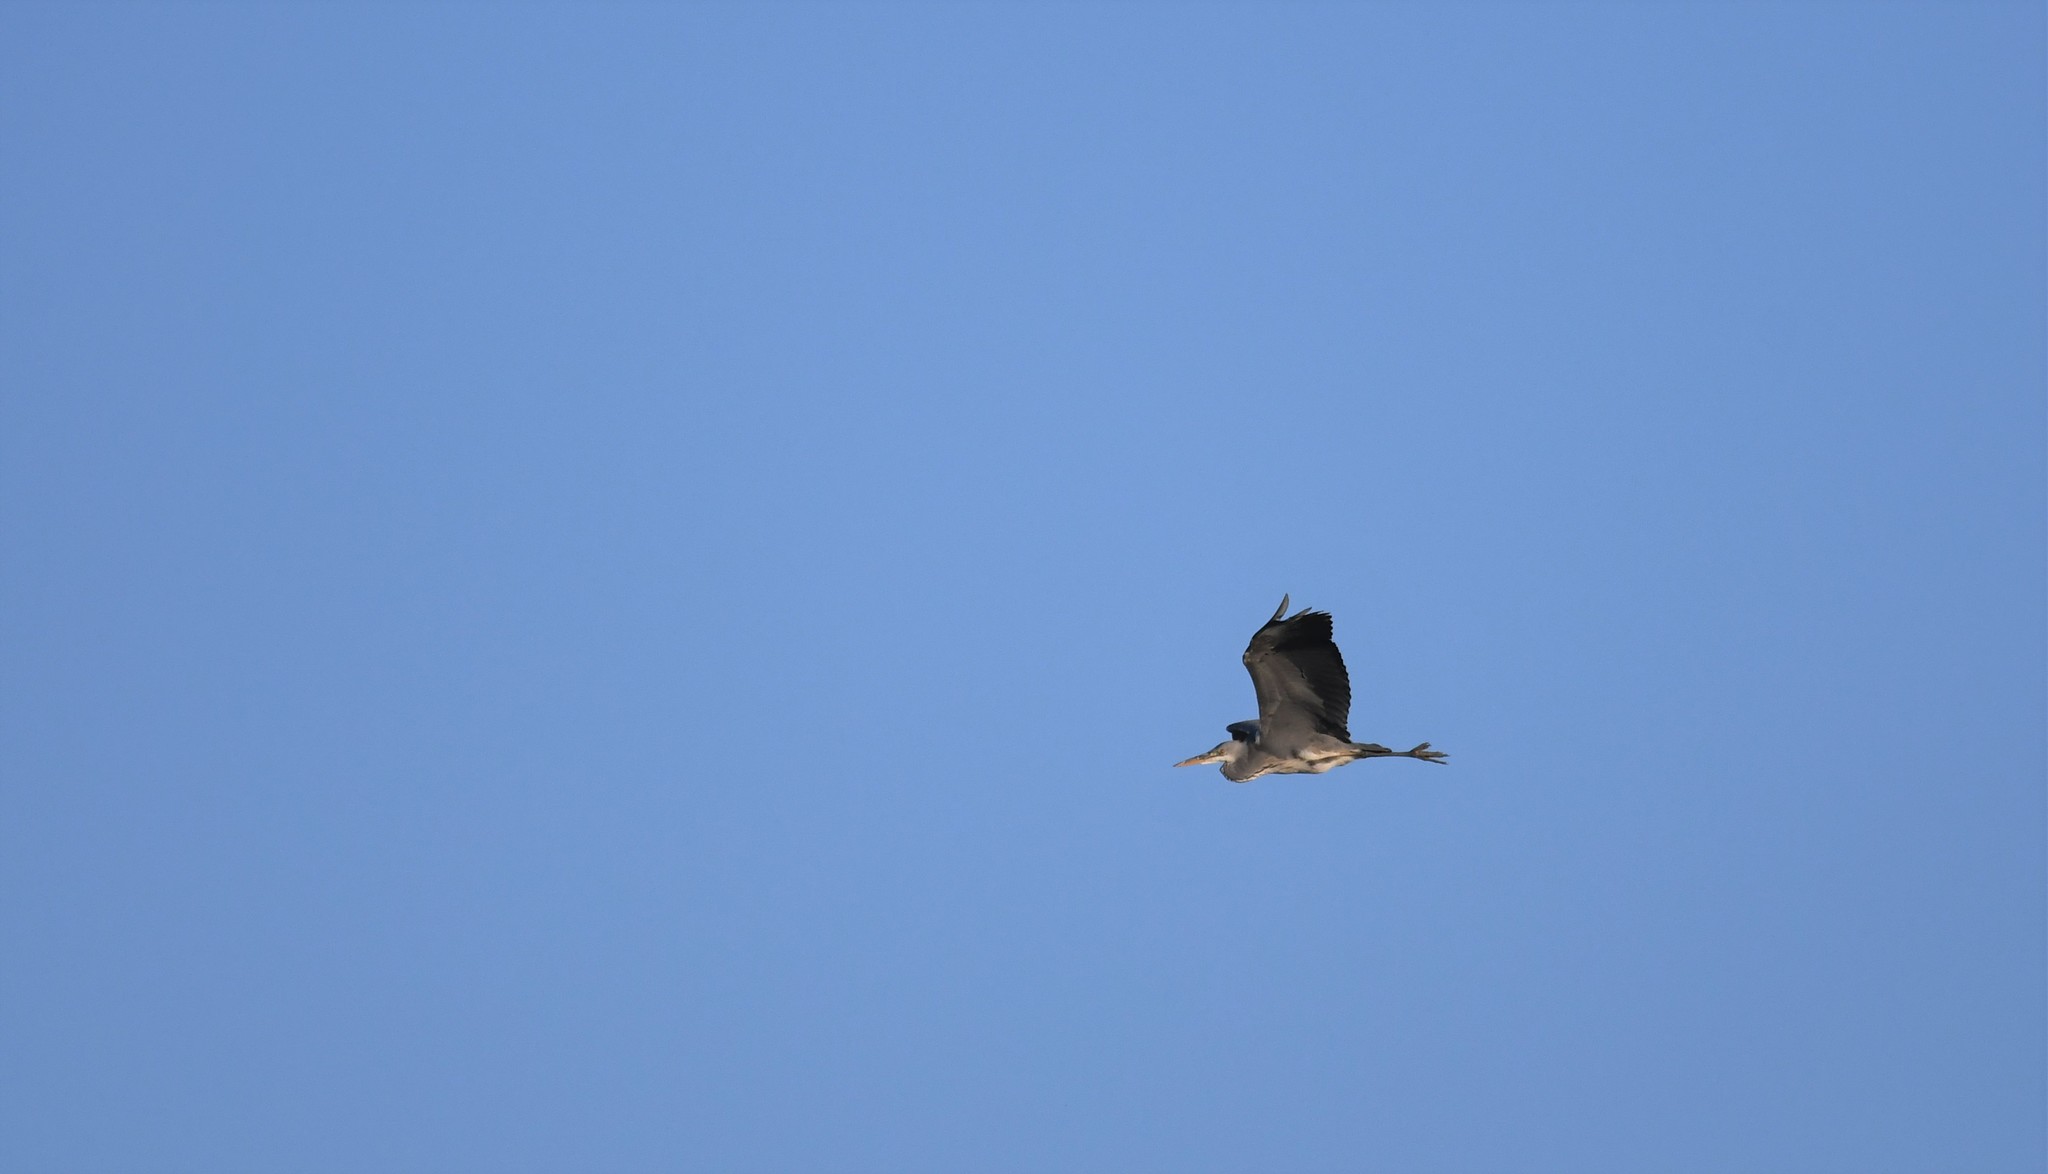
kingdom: Animalia
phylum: Chordata
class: Aves
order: Pelecaniformes
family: Ardeidae
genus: Ardea
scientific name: Ardea cinerea
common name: Grey heron
